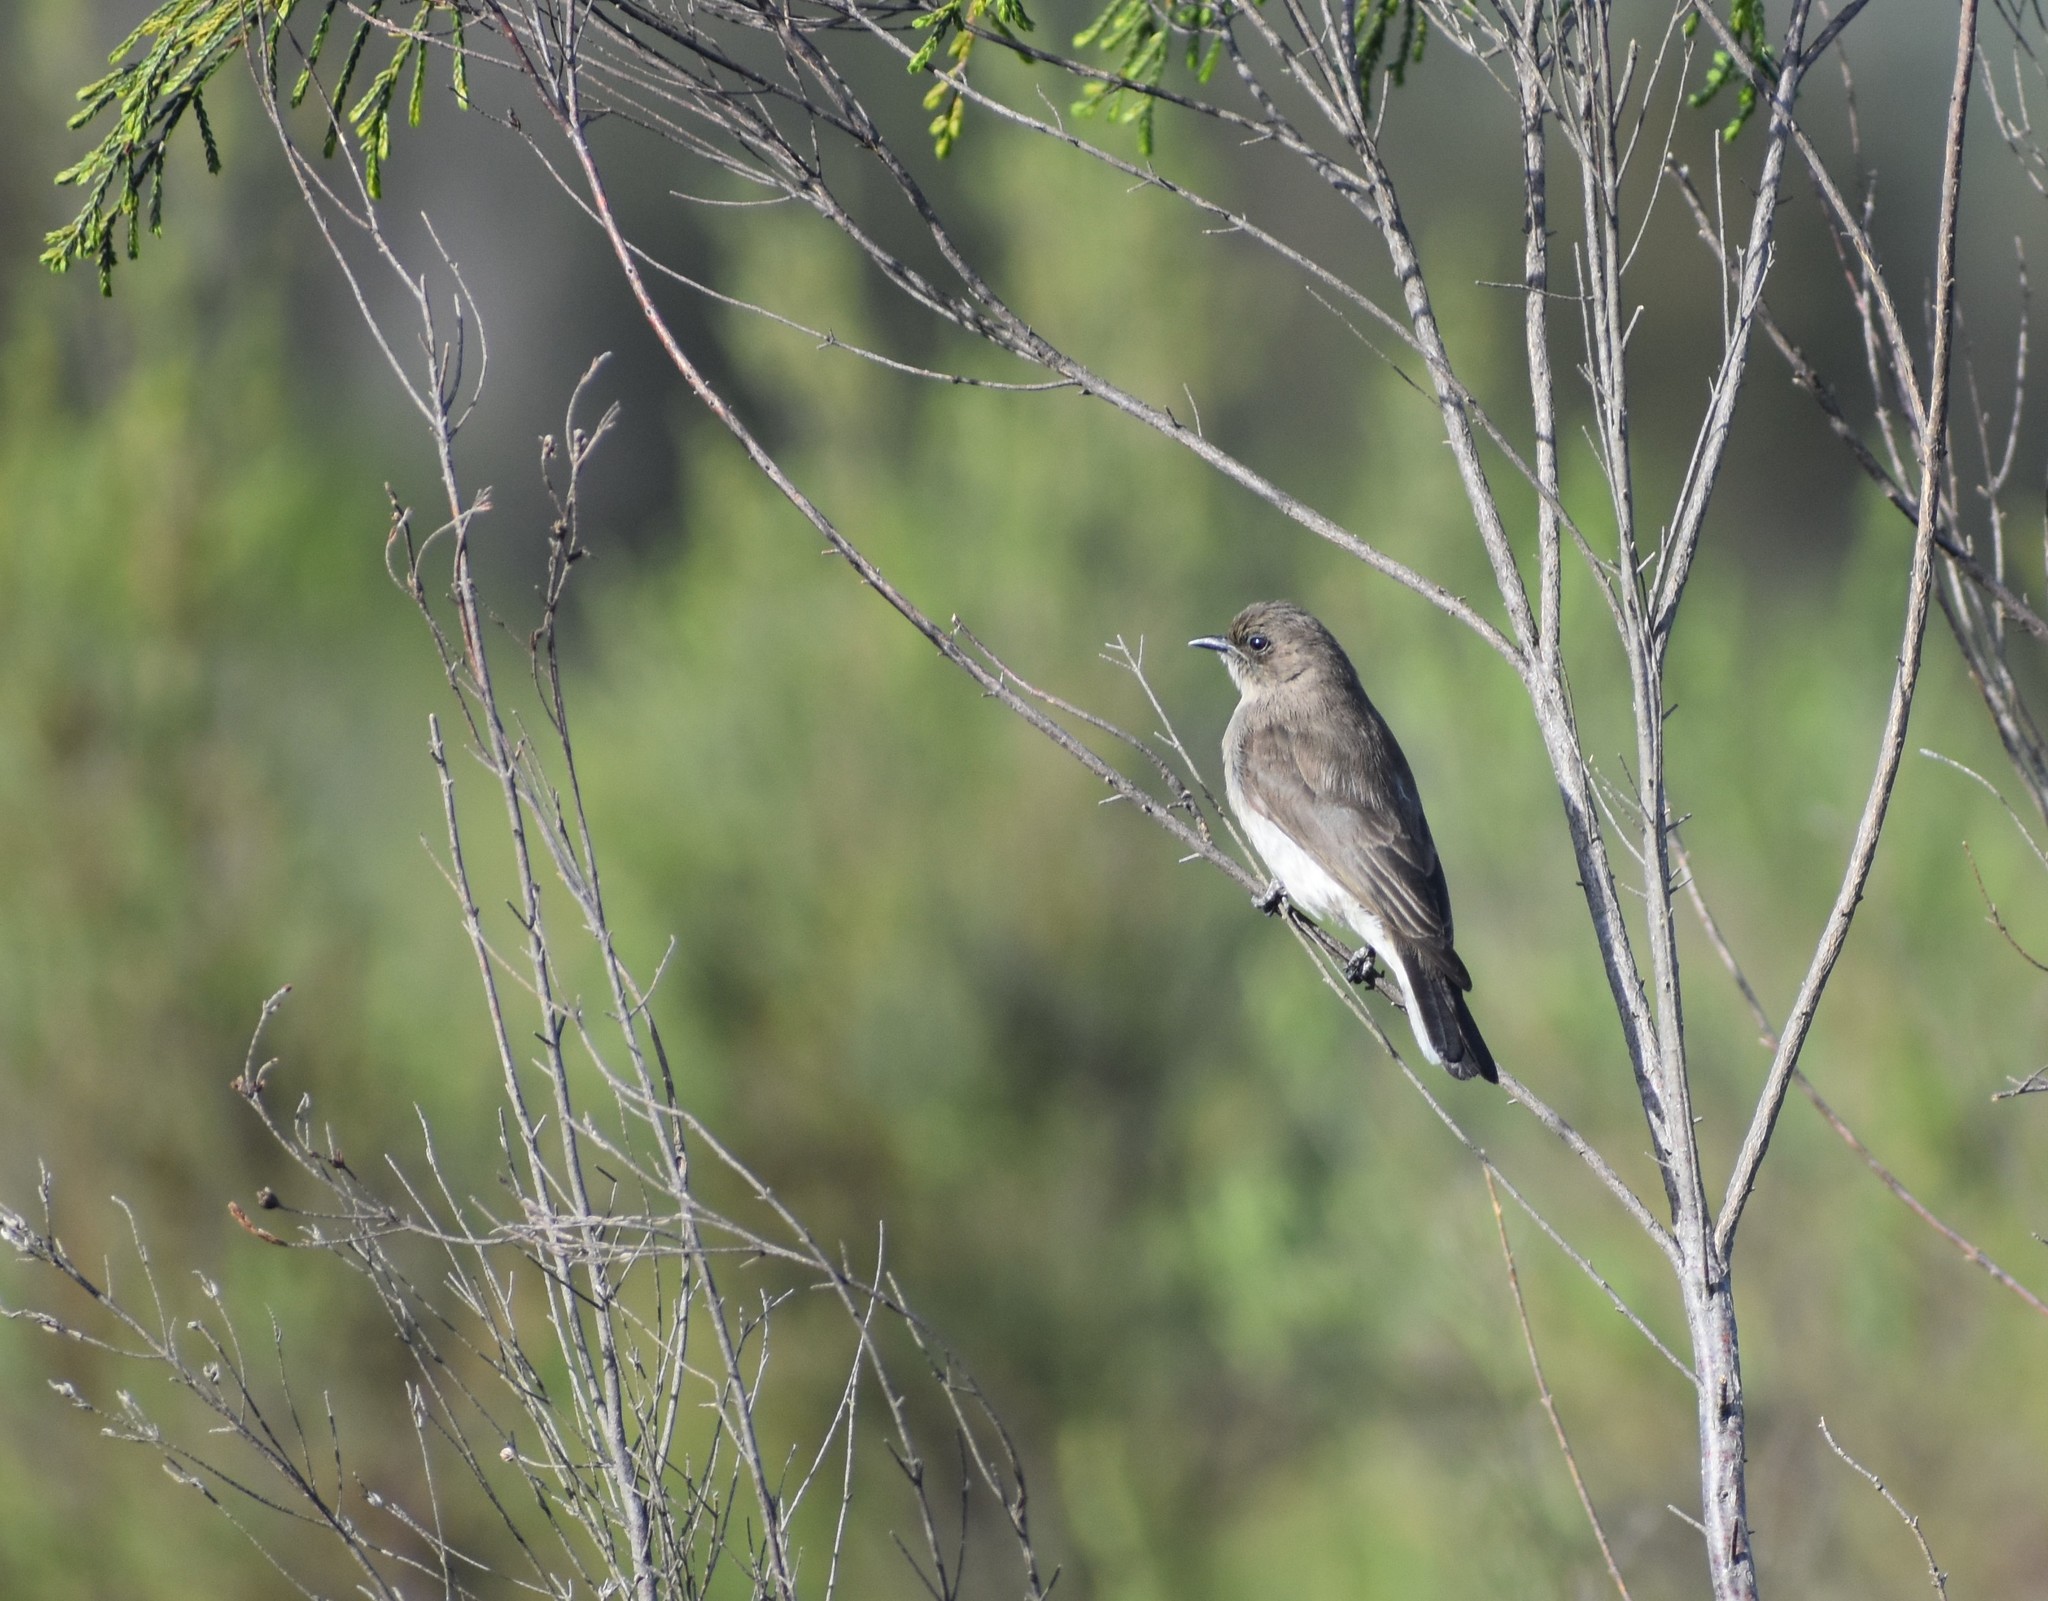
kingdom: Animalia
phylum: Chordata
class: Aves
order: Piciformes
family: Indicatoridae
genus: Prodotiscus
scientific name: Prodotiscus regulus
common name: Brown-backed honeybird
